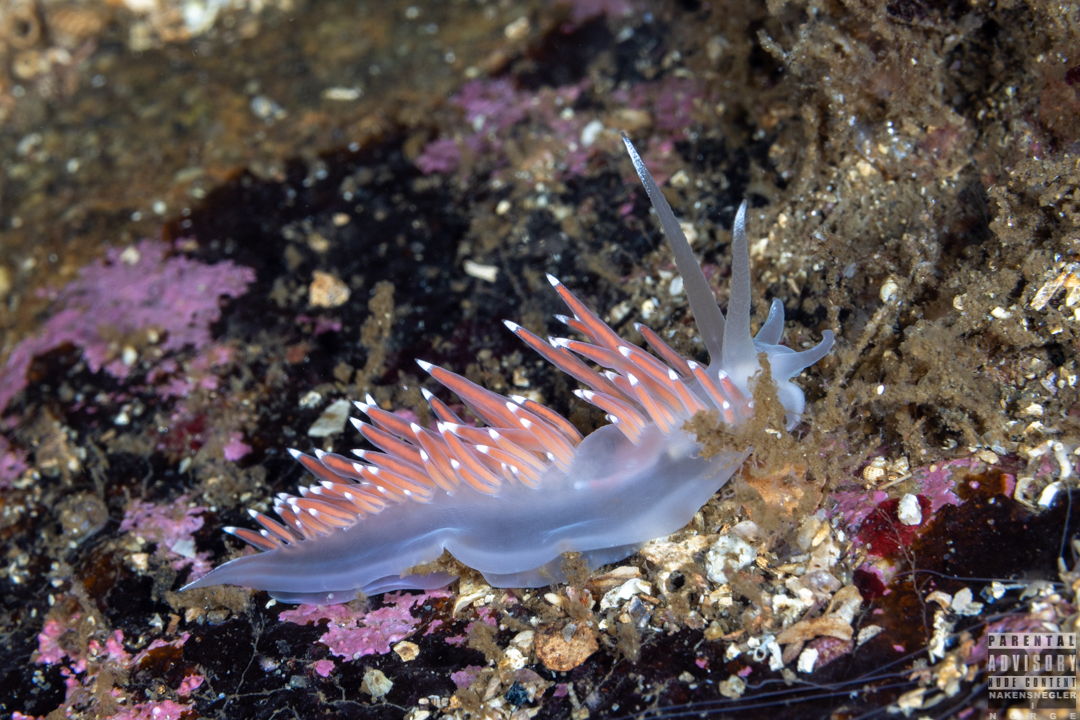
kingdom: Animalia
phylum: Mollusca
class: Gastropoda
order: Nudibranchia
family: Coryphellidae
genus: Coryphella
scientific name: Coryphella browni
